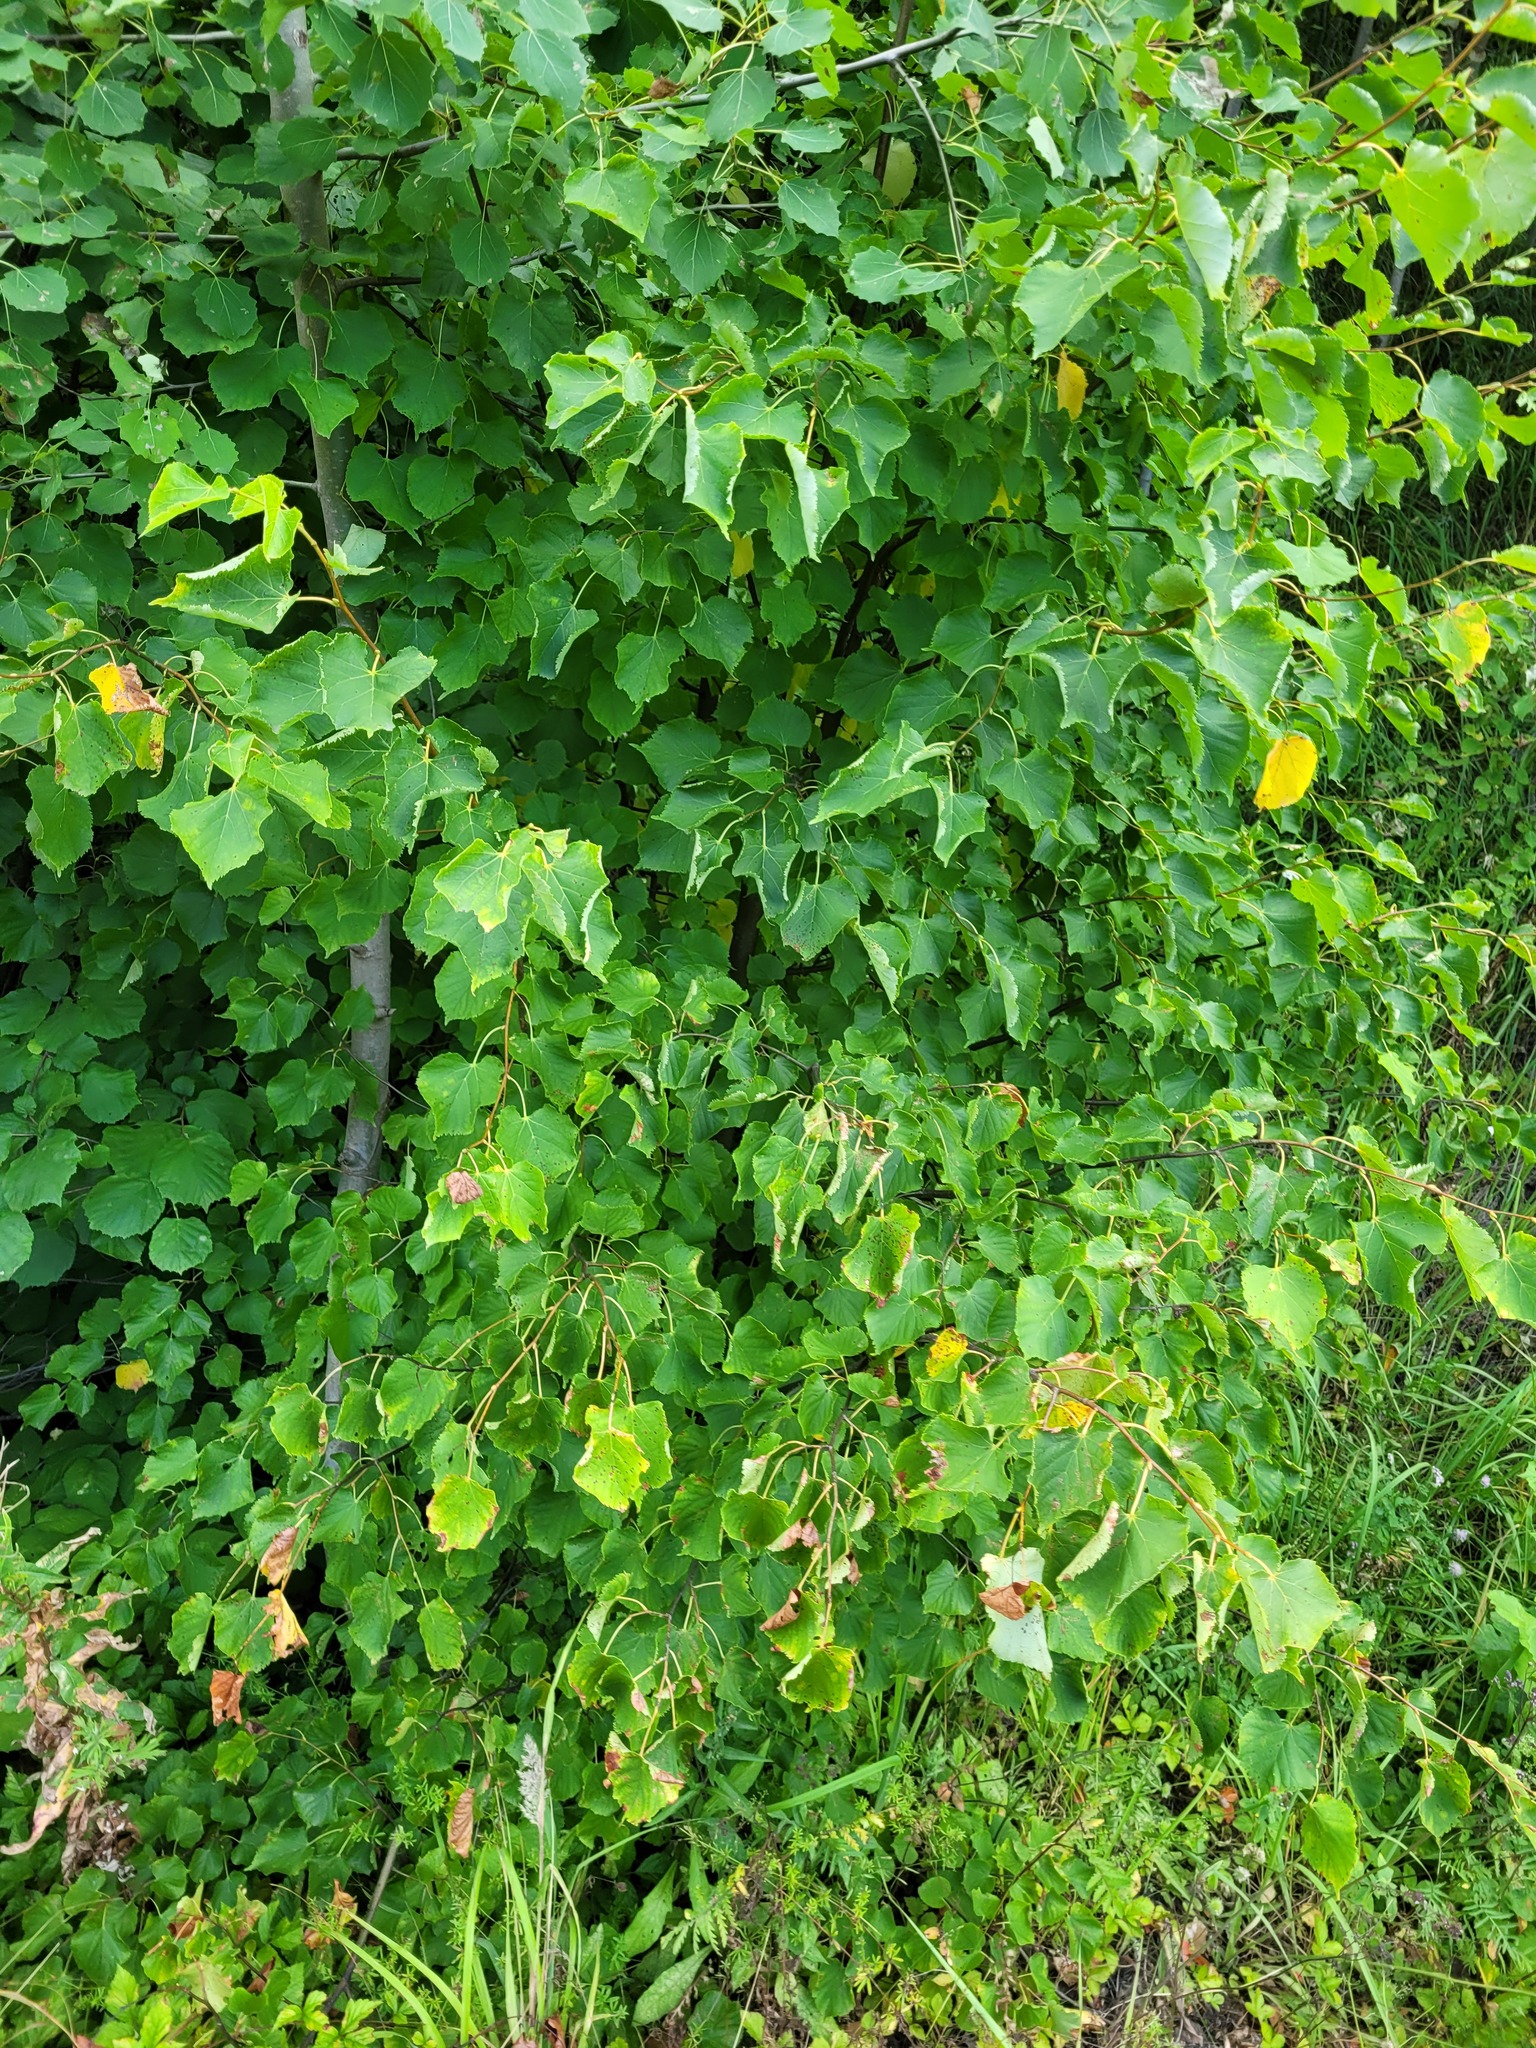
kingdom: Plantae
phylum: Tracheophyta
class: Magnoliopsida
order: Malvales
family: Malvaceae
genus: Tilia
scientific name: Tilia cordata
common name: Small-leaved lime
